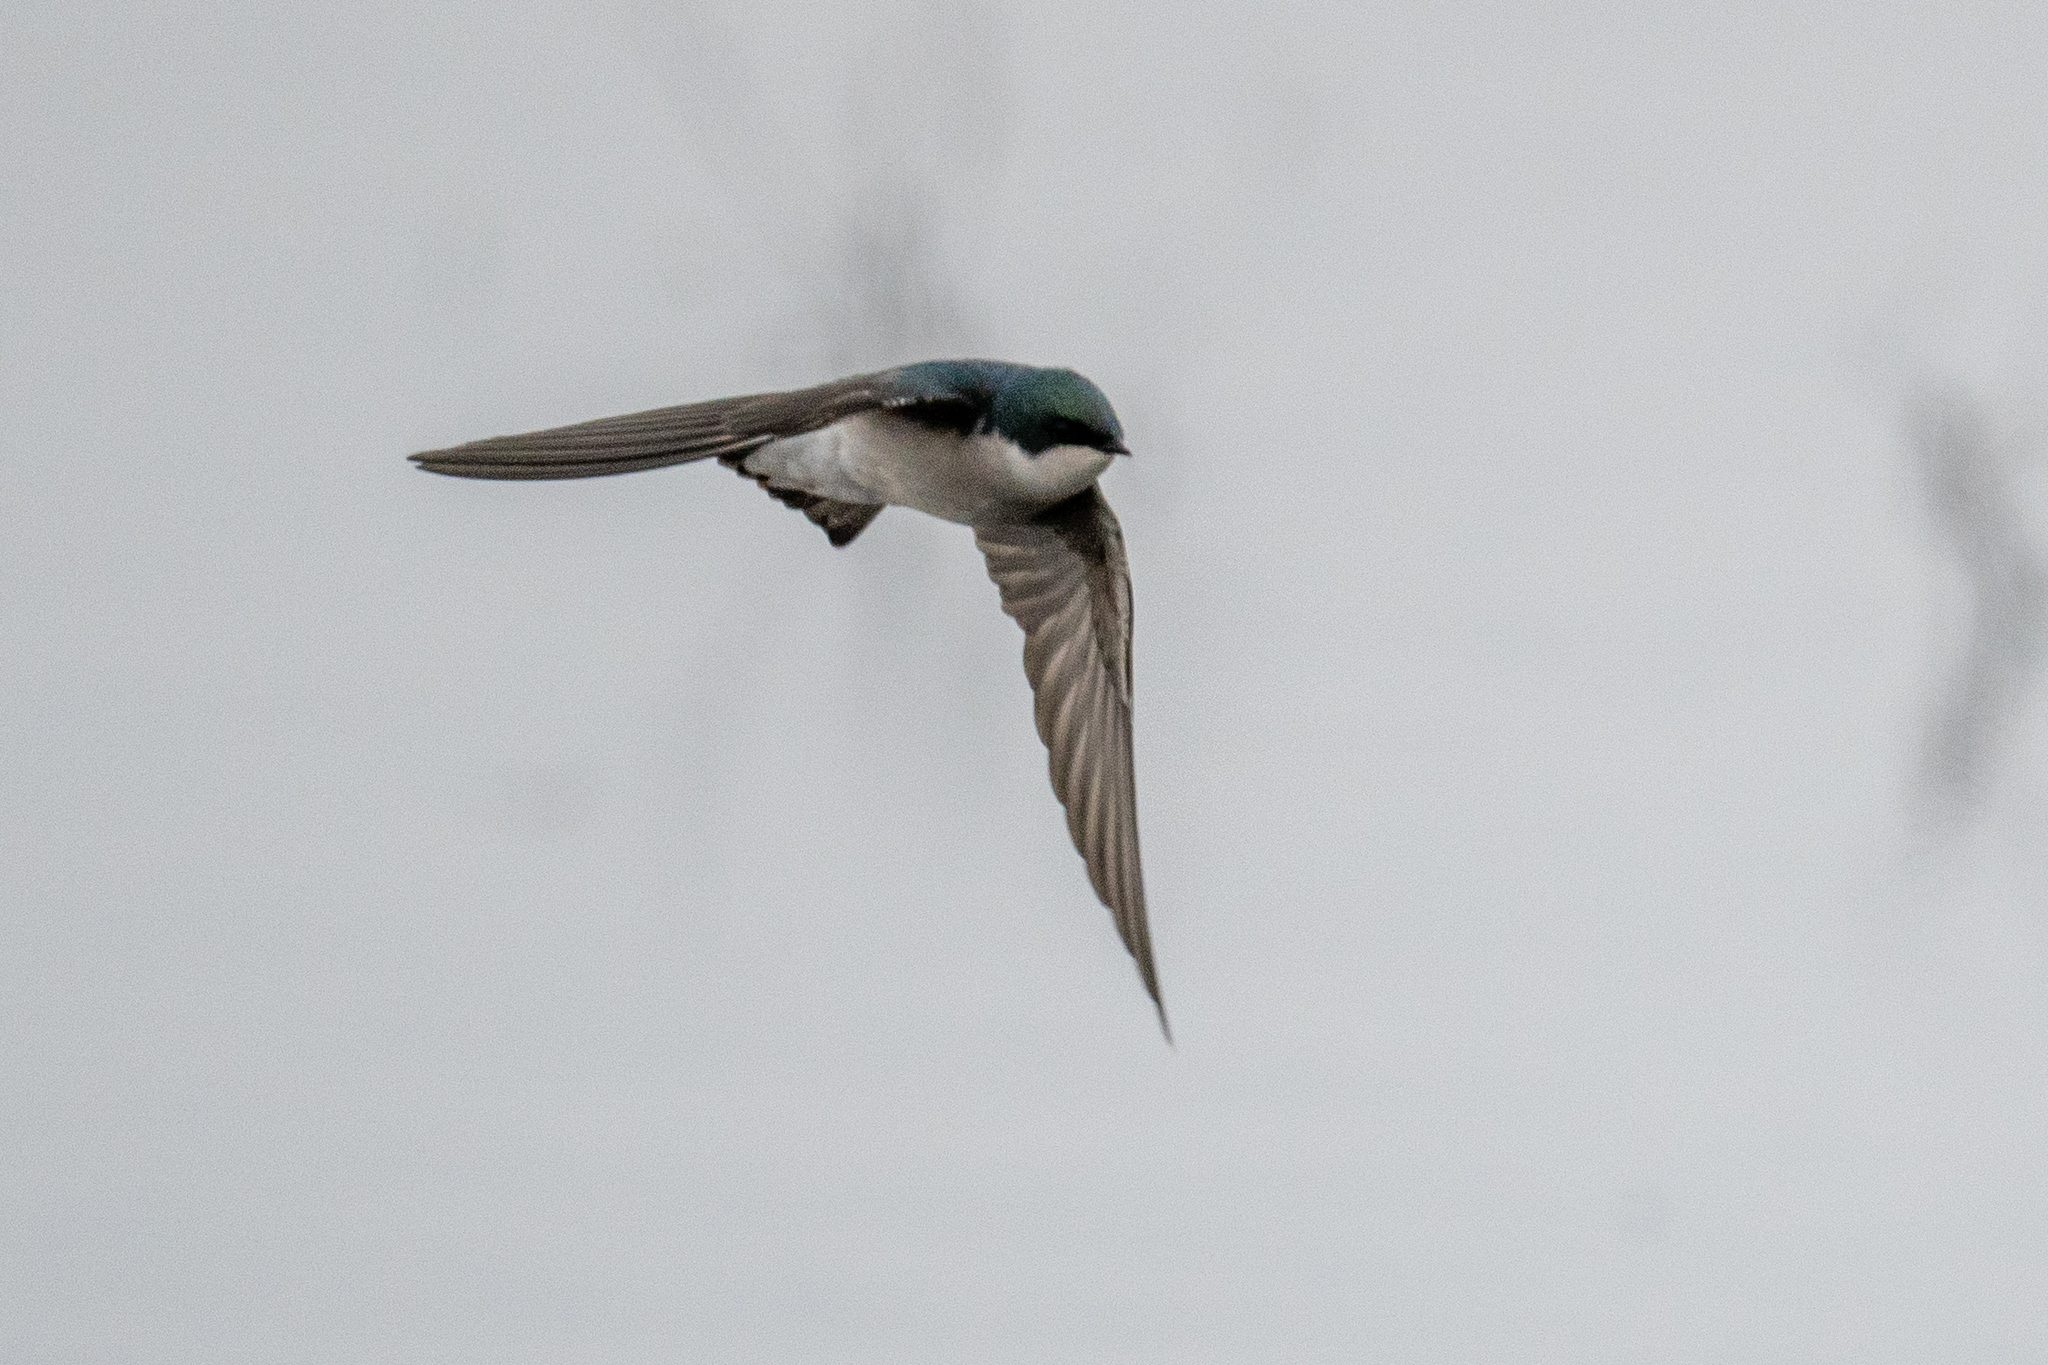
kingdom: Animalia
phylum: Chordata
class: Aves
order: Passeriformes
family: Hirundinidae
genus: Tachycineta
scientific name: Tachycineta bicolor
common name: Tree swallow
